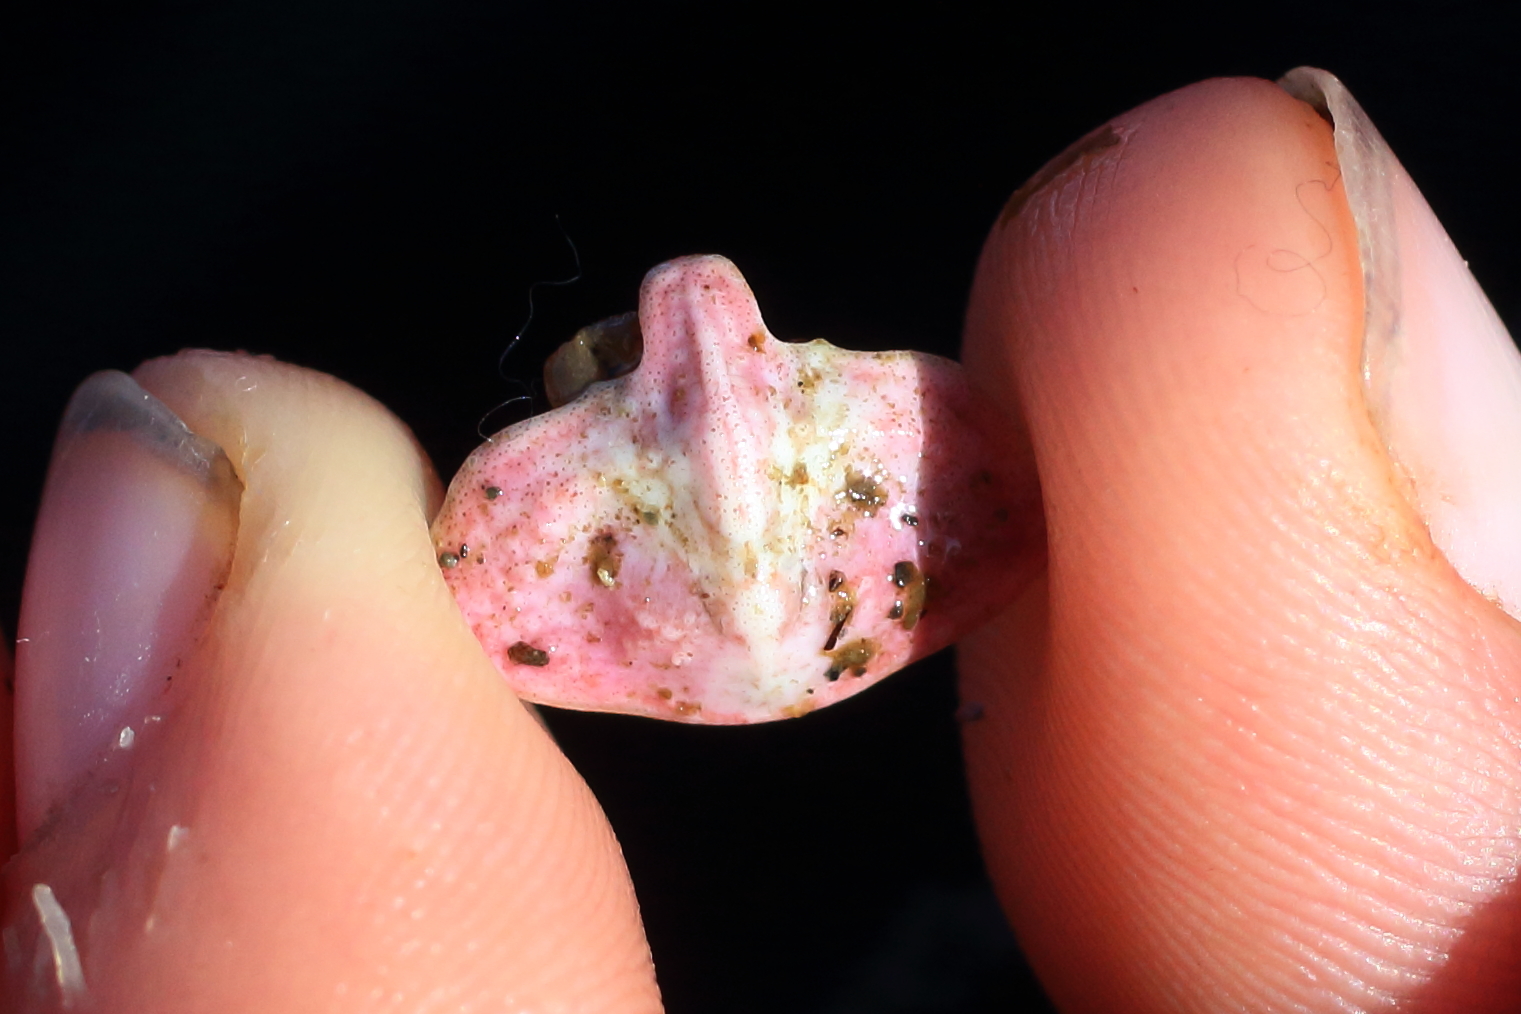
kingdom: Animalia
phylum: Arthropoda
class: Malacostraca
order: Decapoda
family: Lithodidae
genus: Cryptolithodes
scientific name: Cryptolithodes typicus
